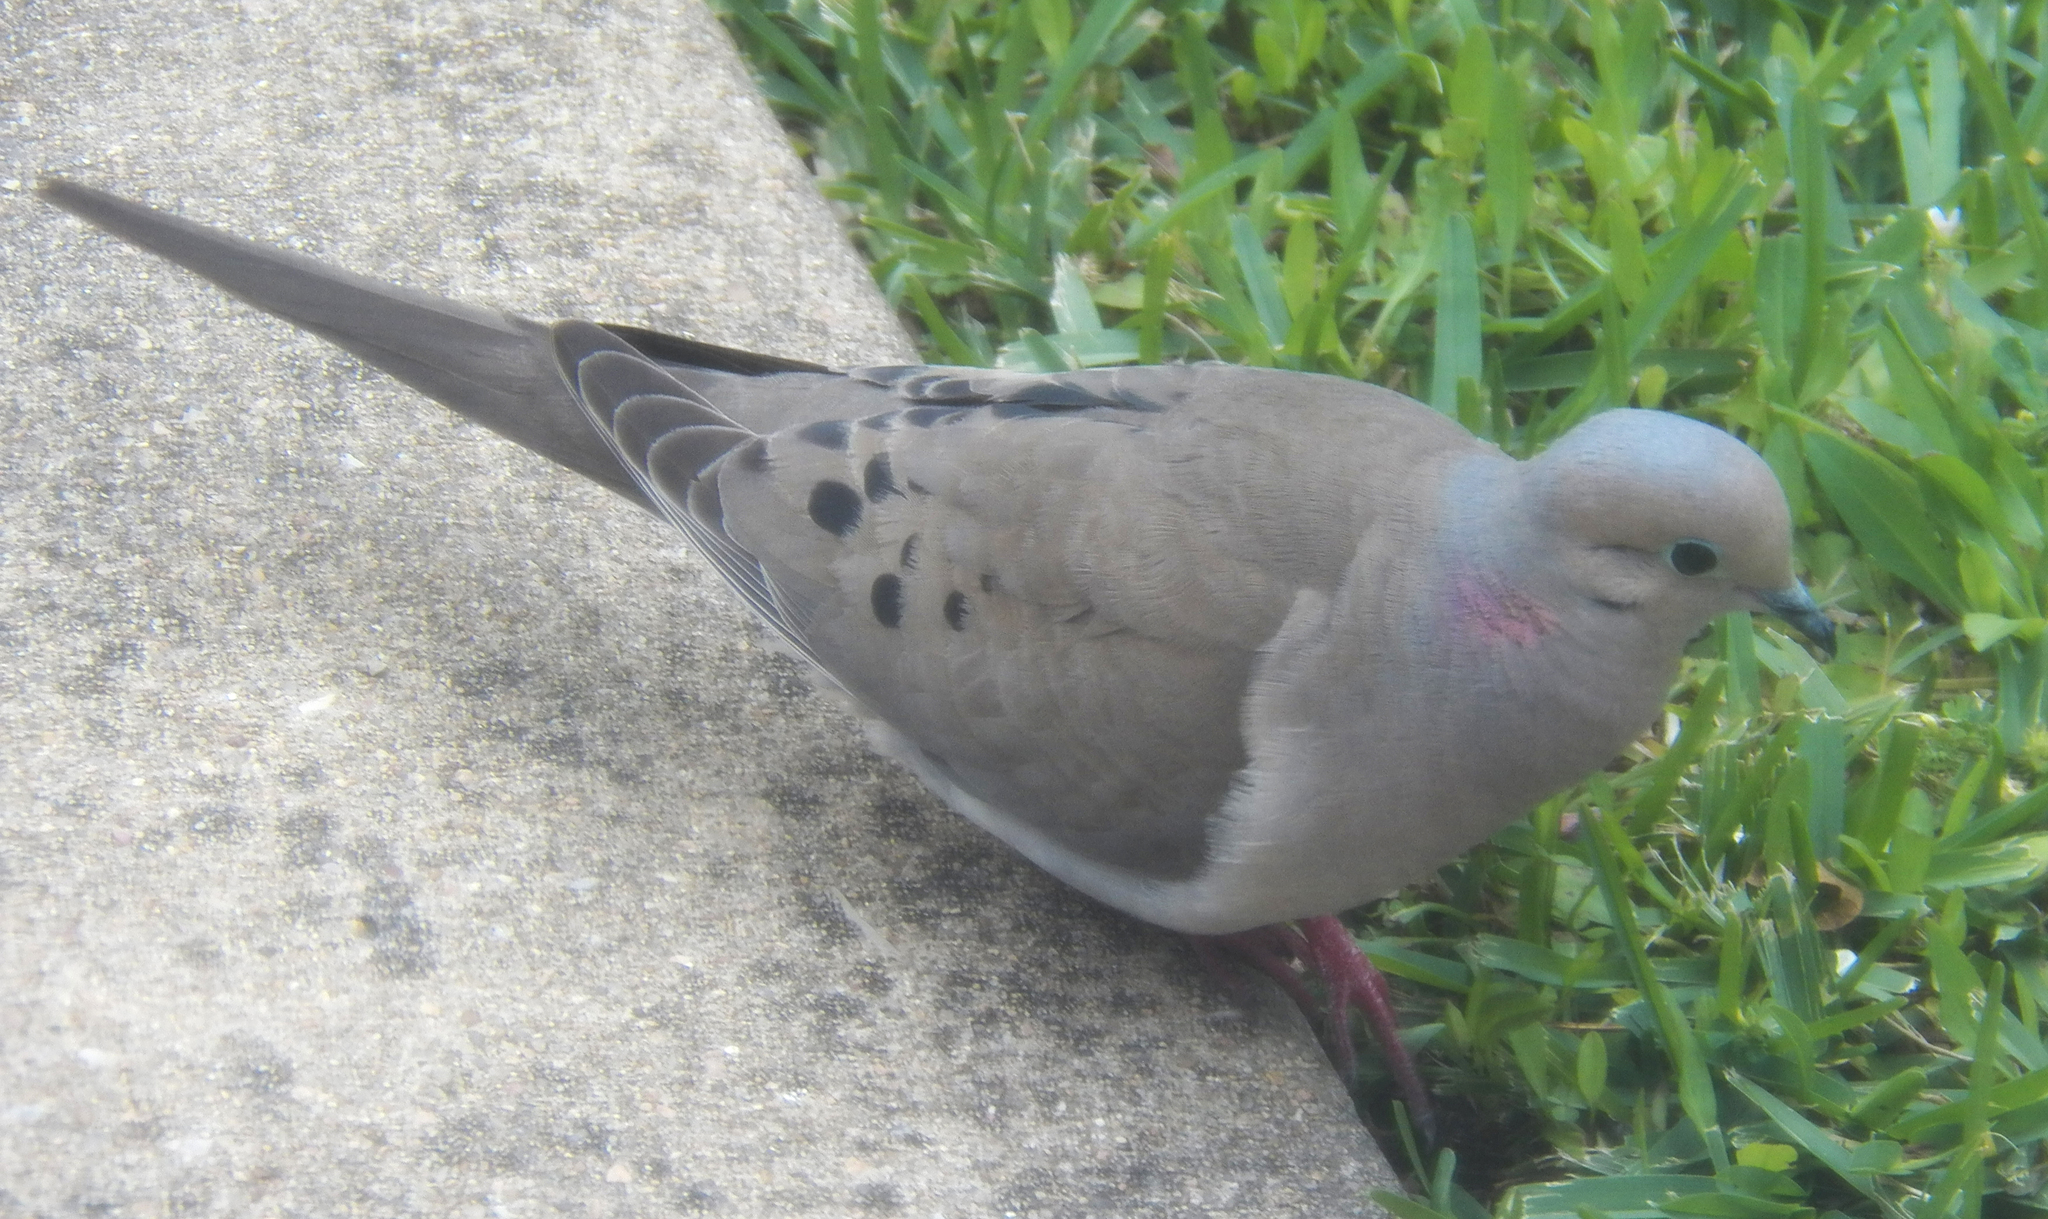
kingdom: Animalia
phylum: Chordata
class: Aves
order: Columbiformes
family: Columbidae
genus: Zenaida
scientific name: Zenaida macroura
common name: Mourning dove
